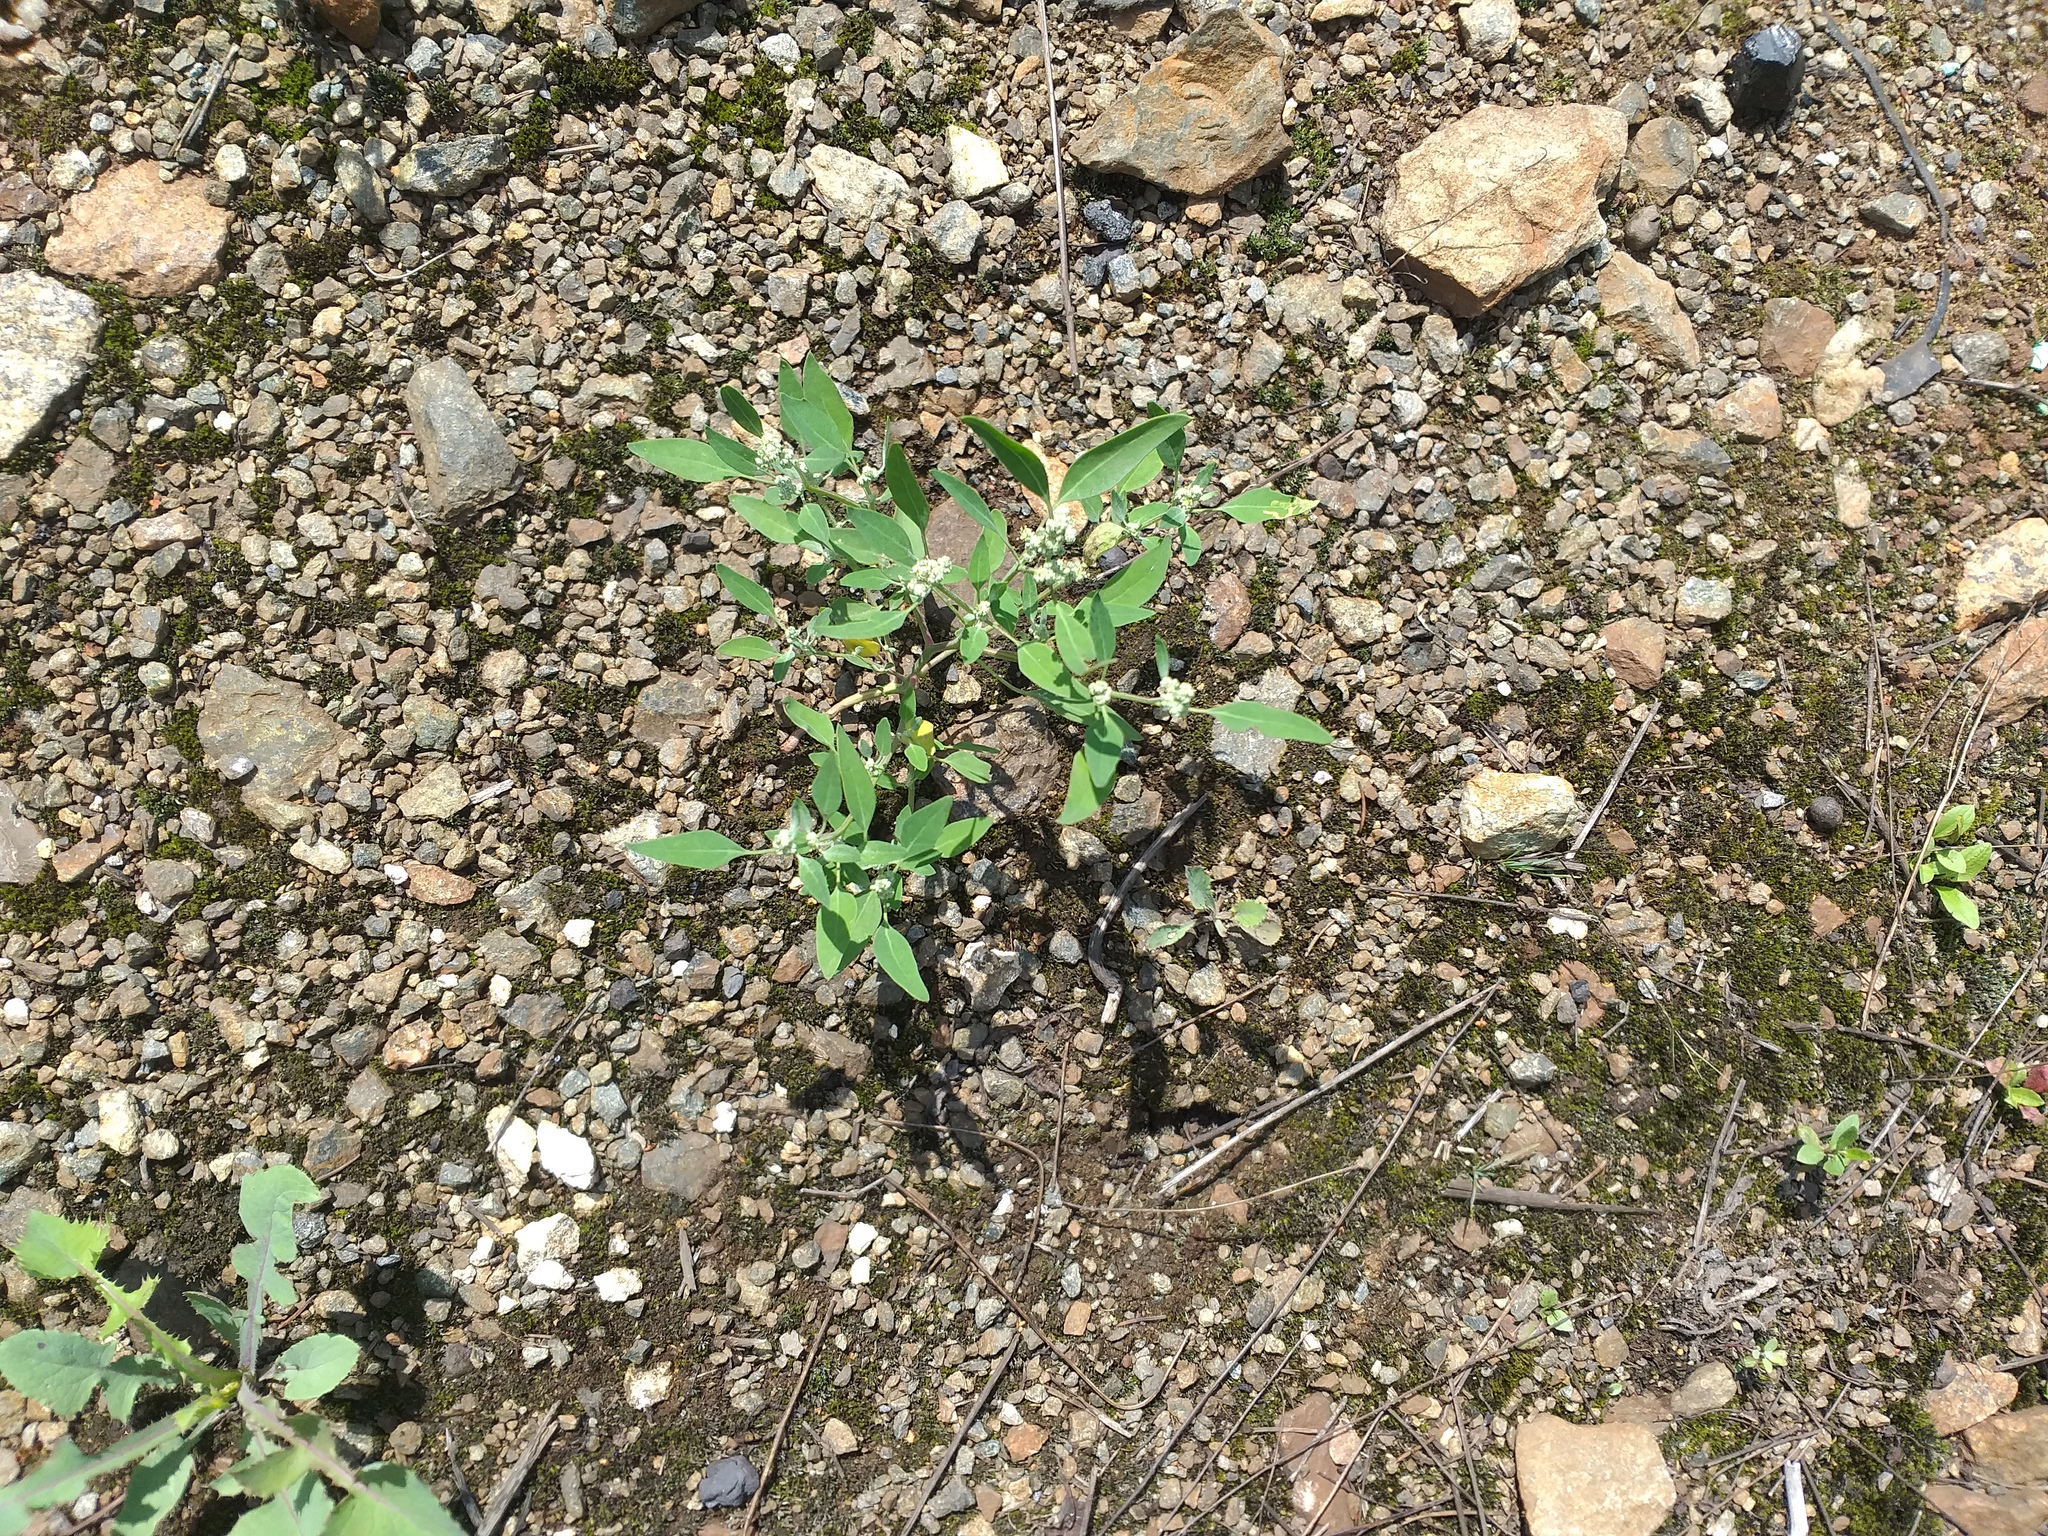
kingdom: Plantae
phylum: Tracheophyta
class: Magnoliopsida
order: Caryophyllales
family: Amaranthaceae
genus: Chenopodium
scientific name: Chenopodium album
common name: Fat-hen
